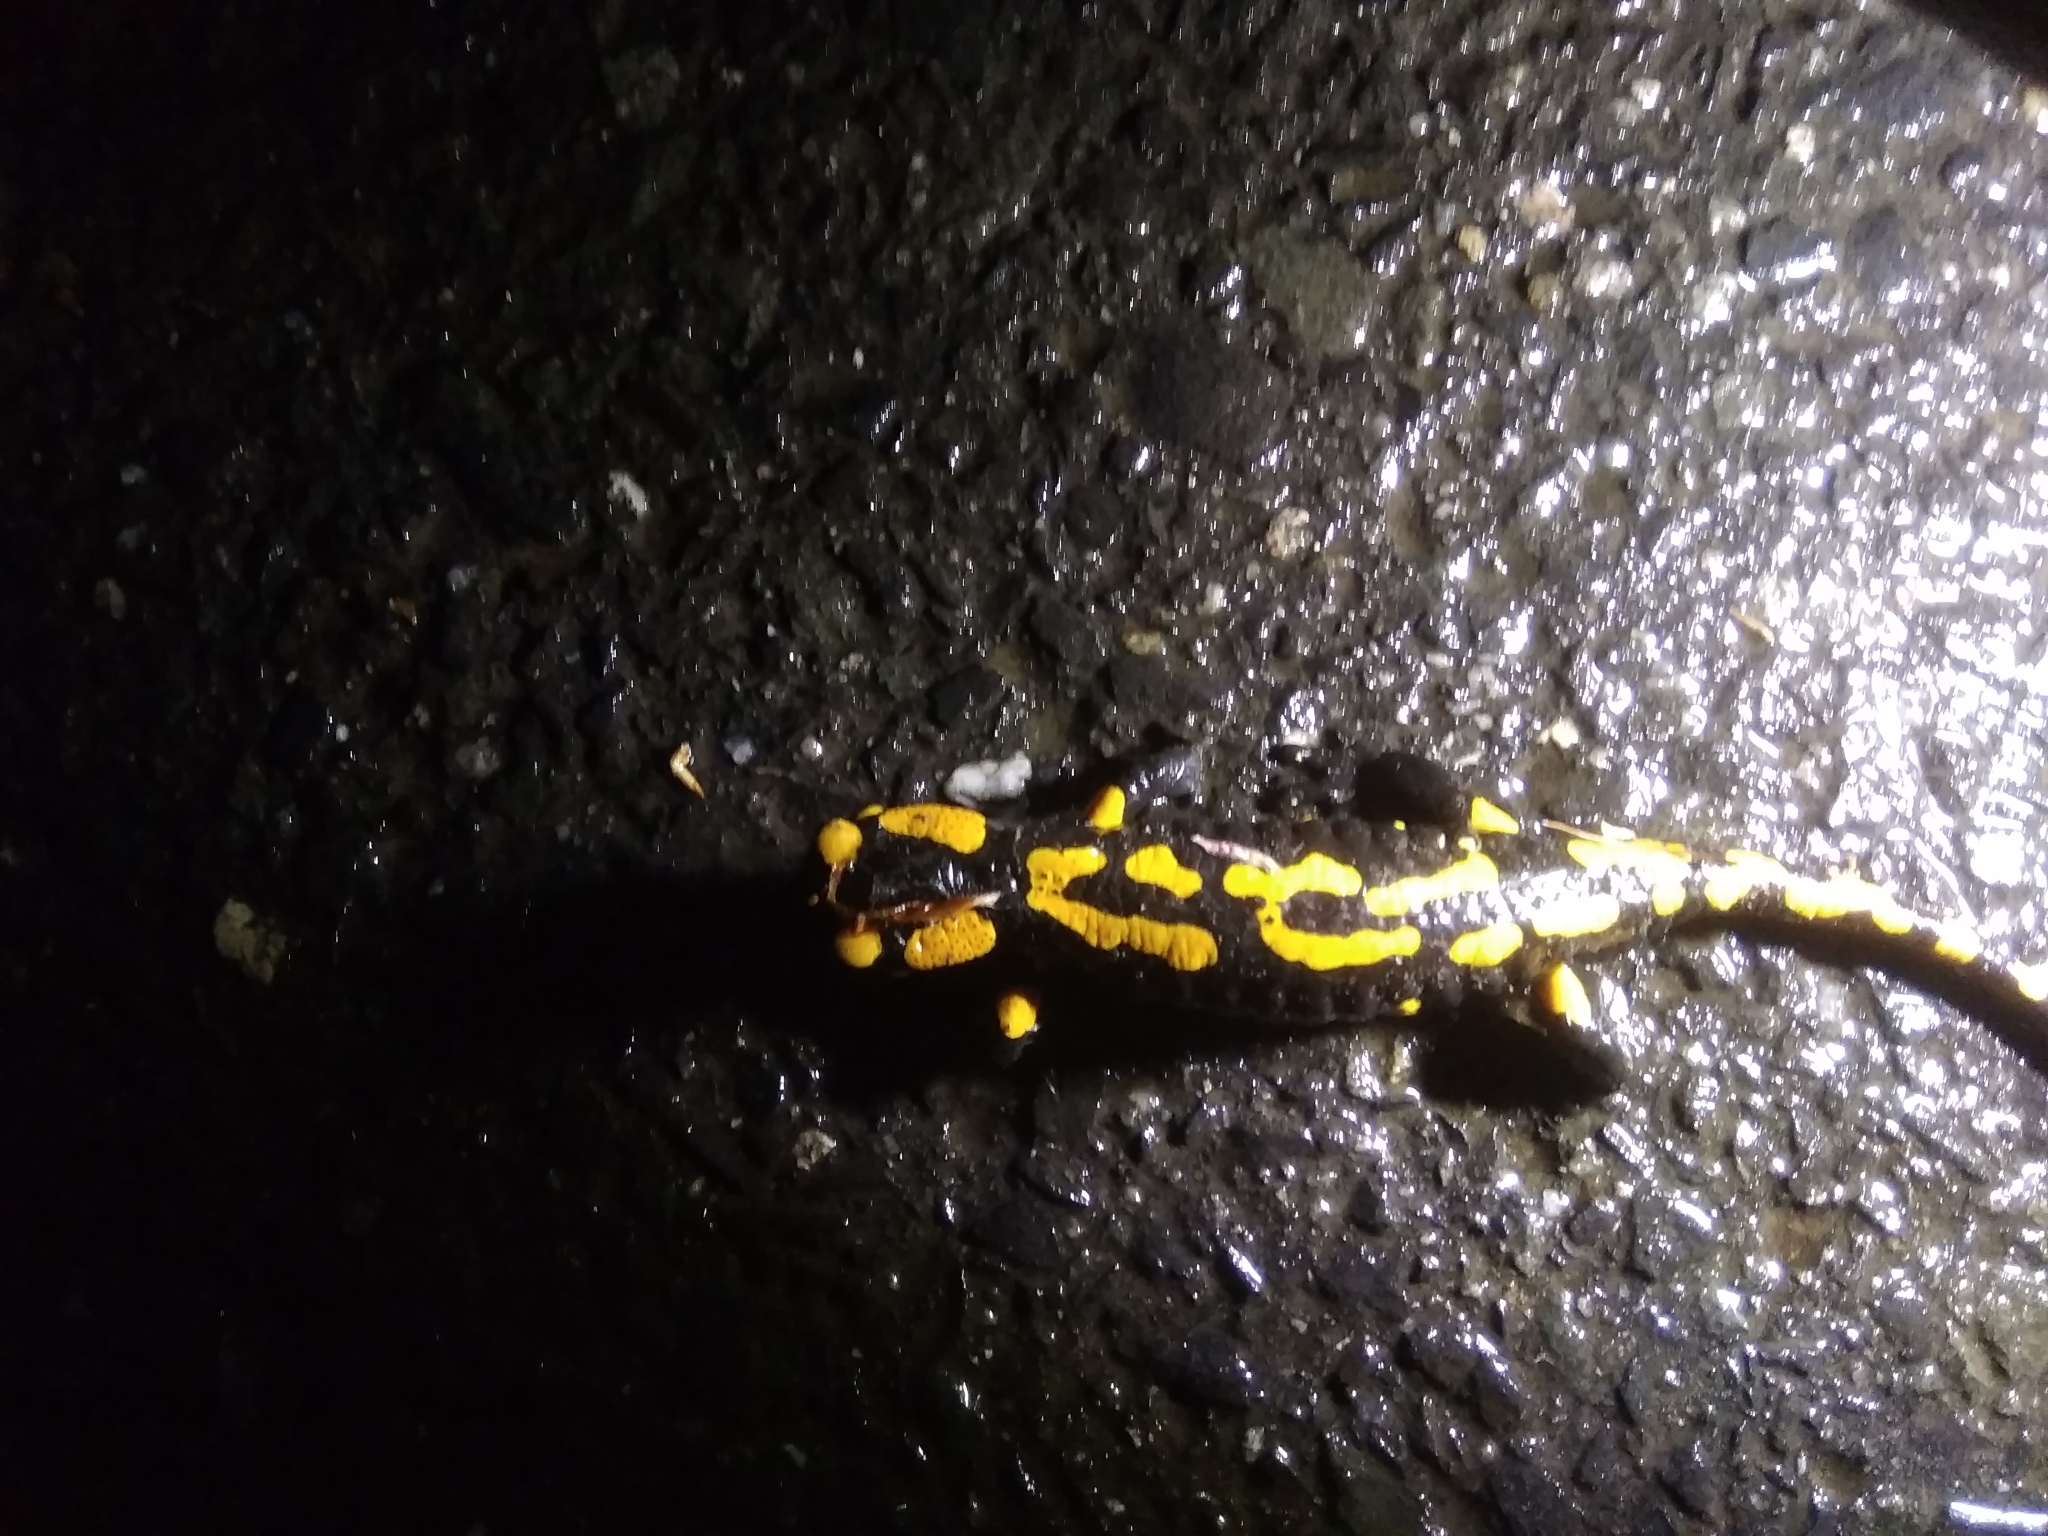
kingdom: Animalia
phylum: Chordata
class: Amphibia
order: Caudata
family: Salamandridae
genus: Salamandra
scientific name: Salamandra salamandra
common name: Fire salamander
